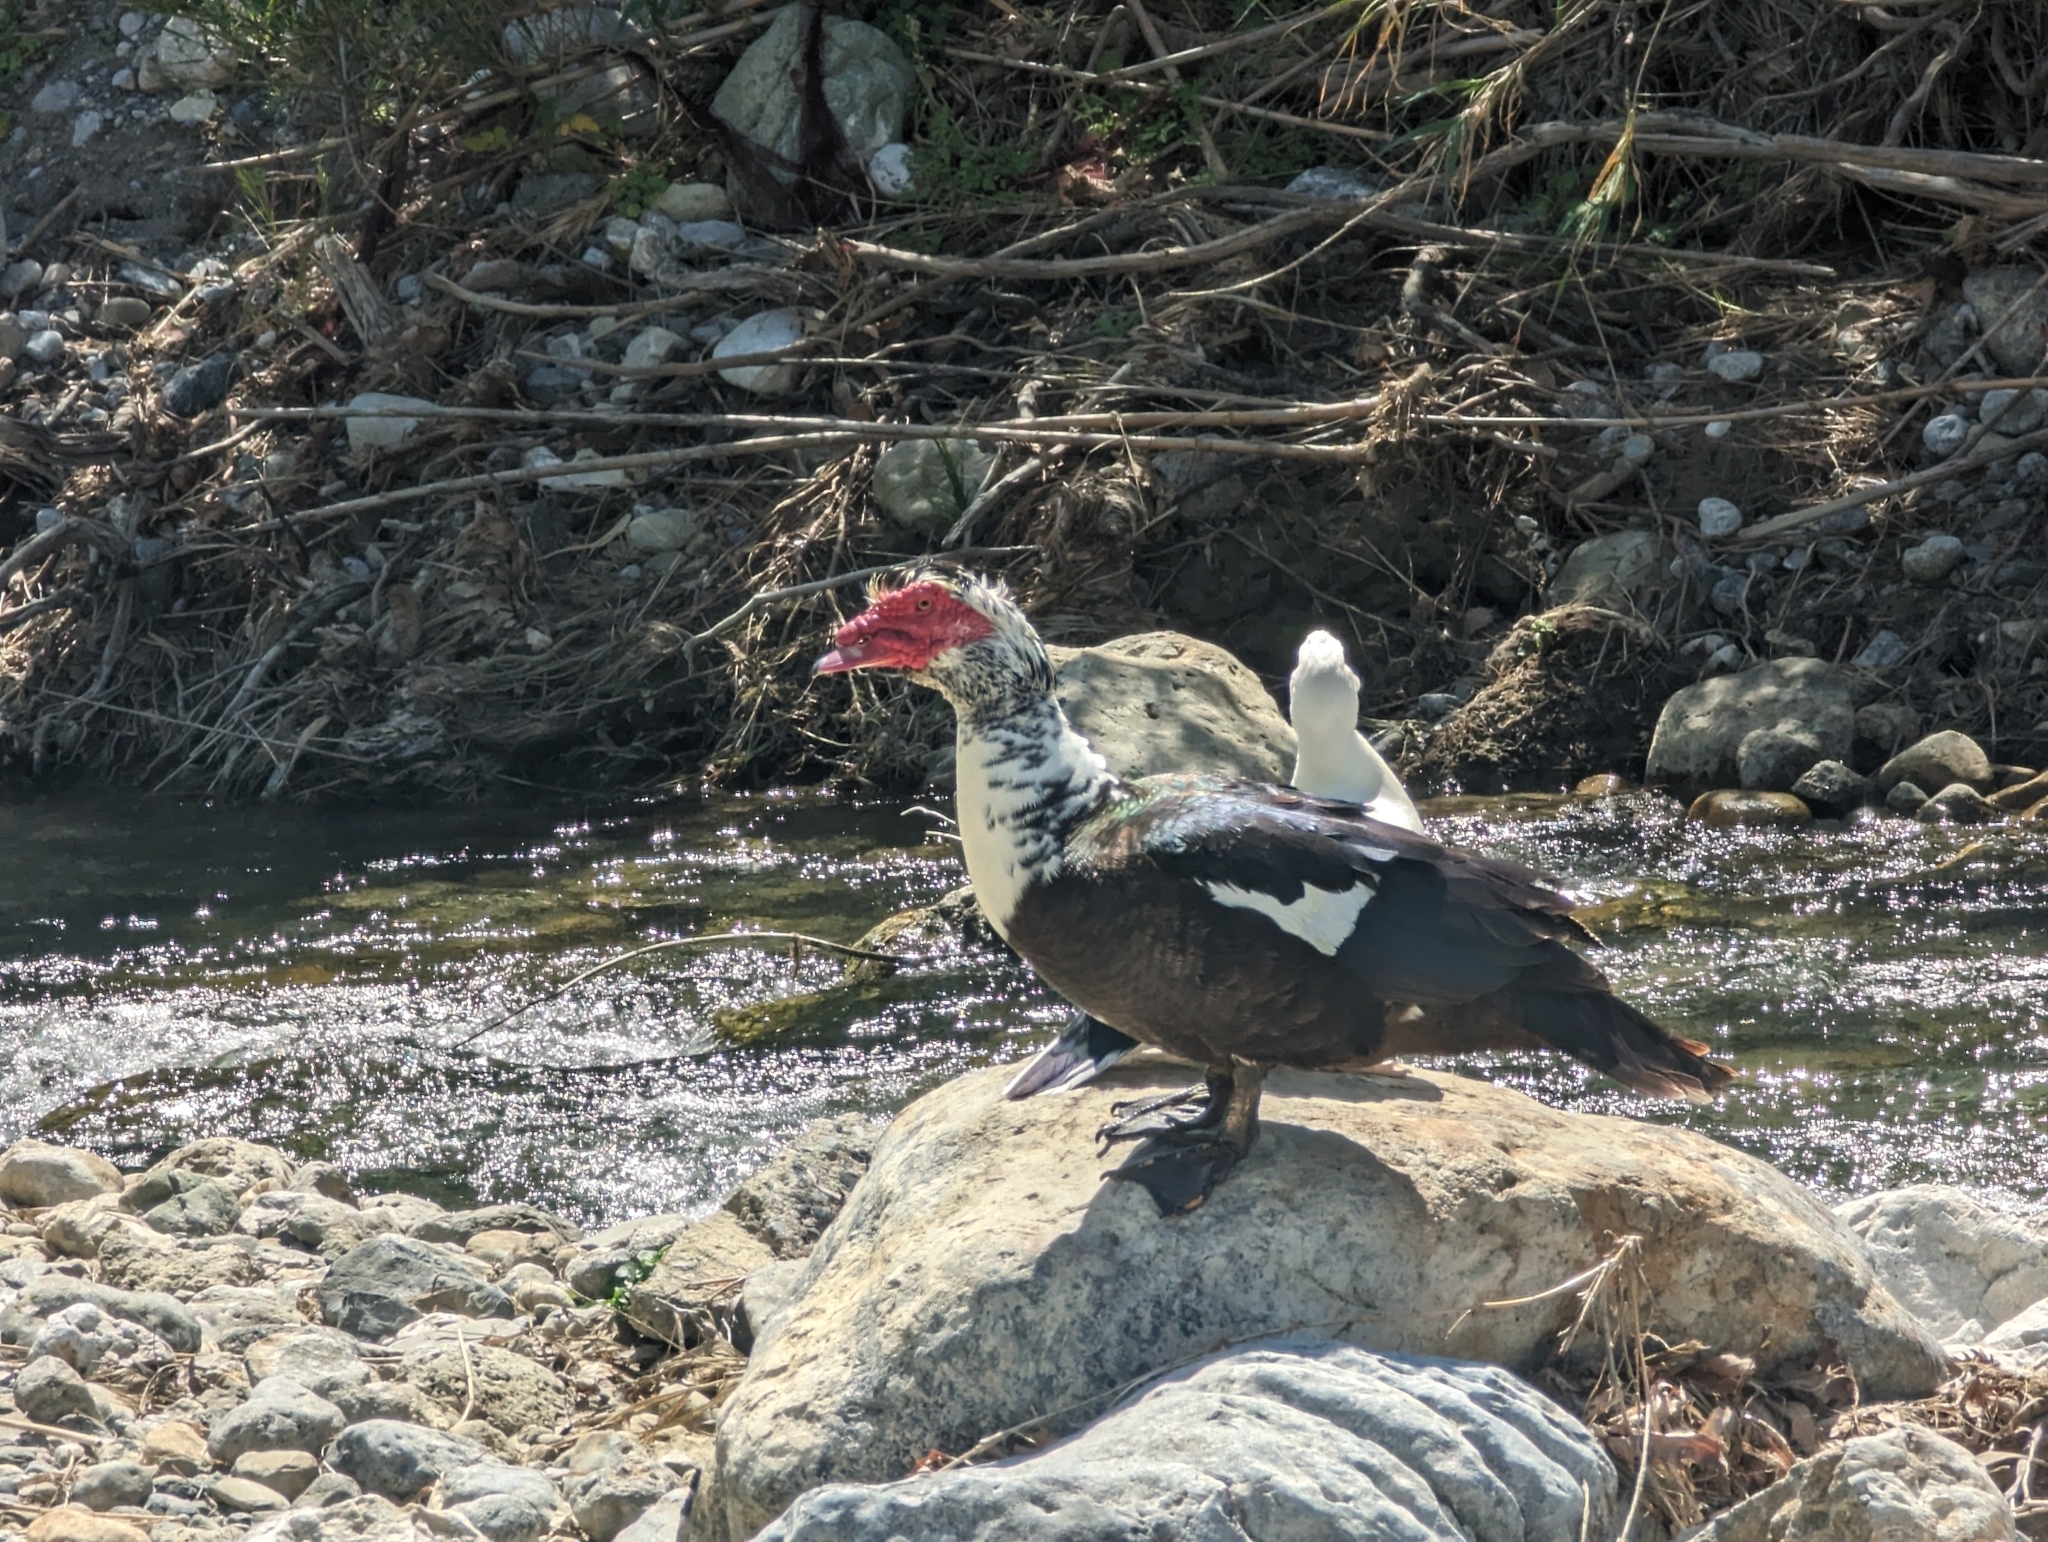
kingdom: Animalia
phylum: Chordata
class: Aves
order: Anseriformes
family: Anatidae
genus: Cairina
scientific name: Cairina moschata
